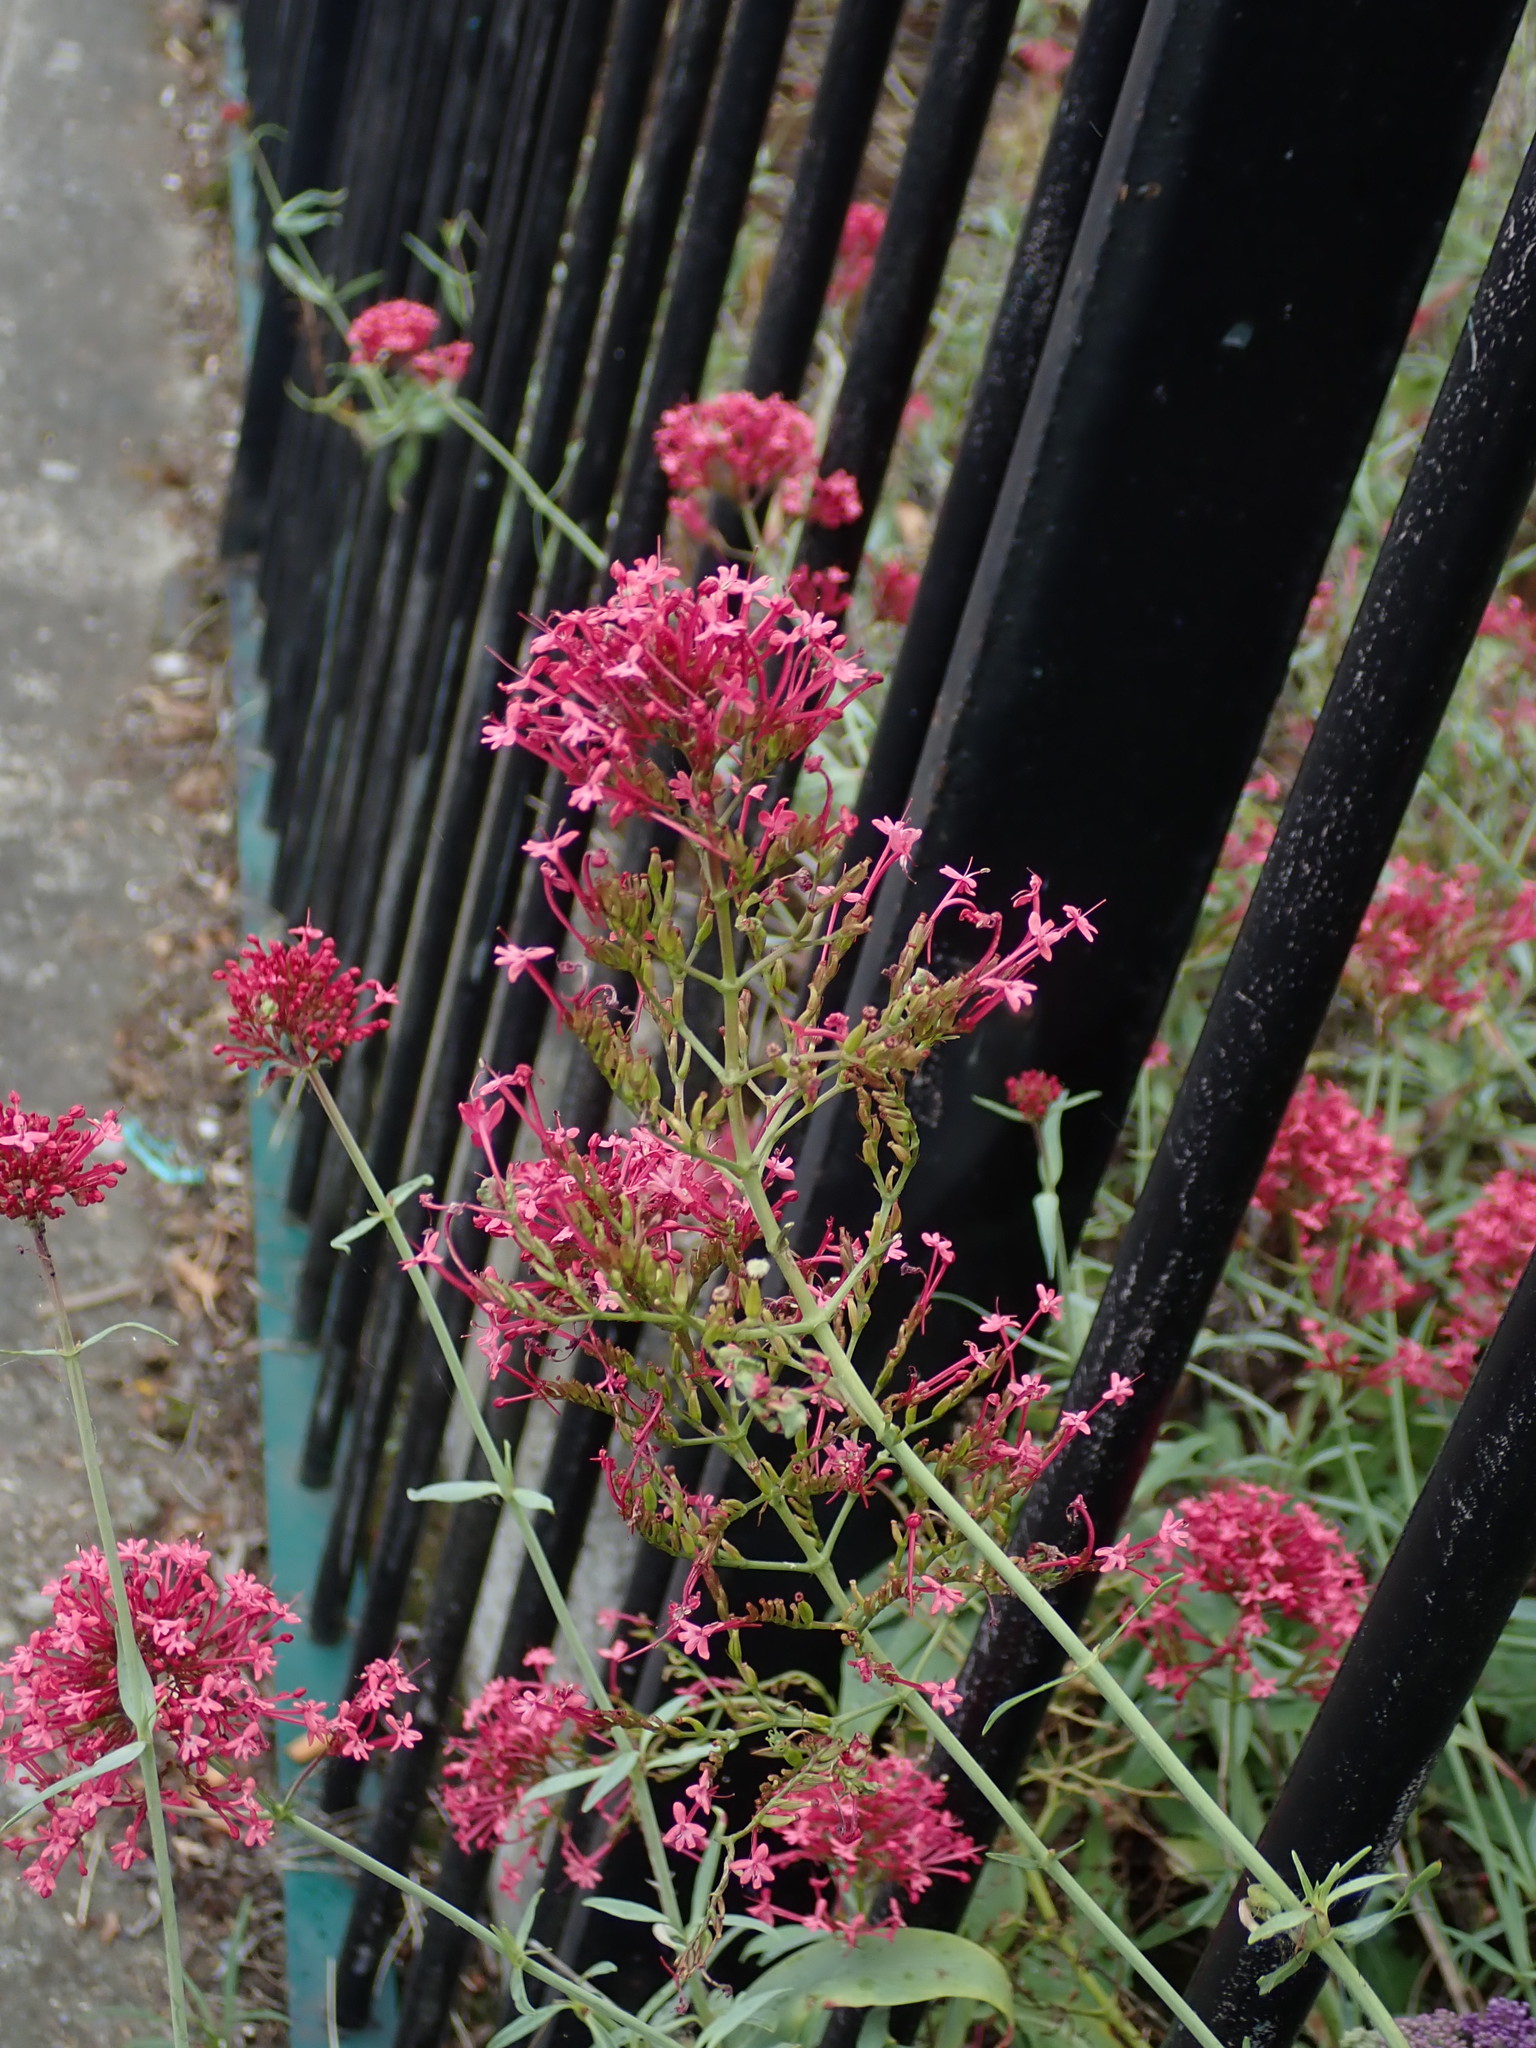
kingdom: Plantae
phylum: Tracheophyta
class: Magnoliopsida
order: Dipsacales
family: Caprifoliaceae
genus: Centranthus
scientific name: Centranthus ruber
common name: Red valerian
